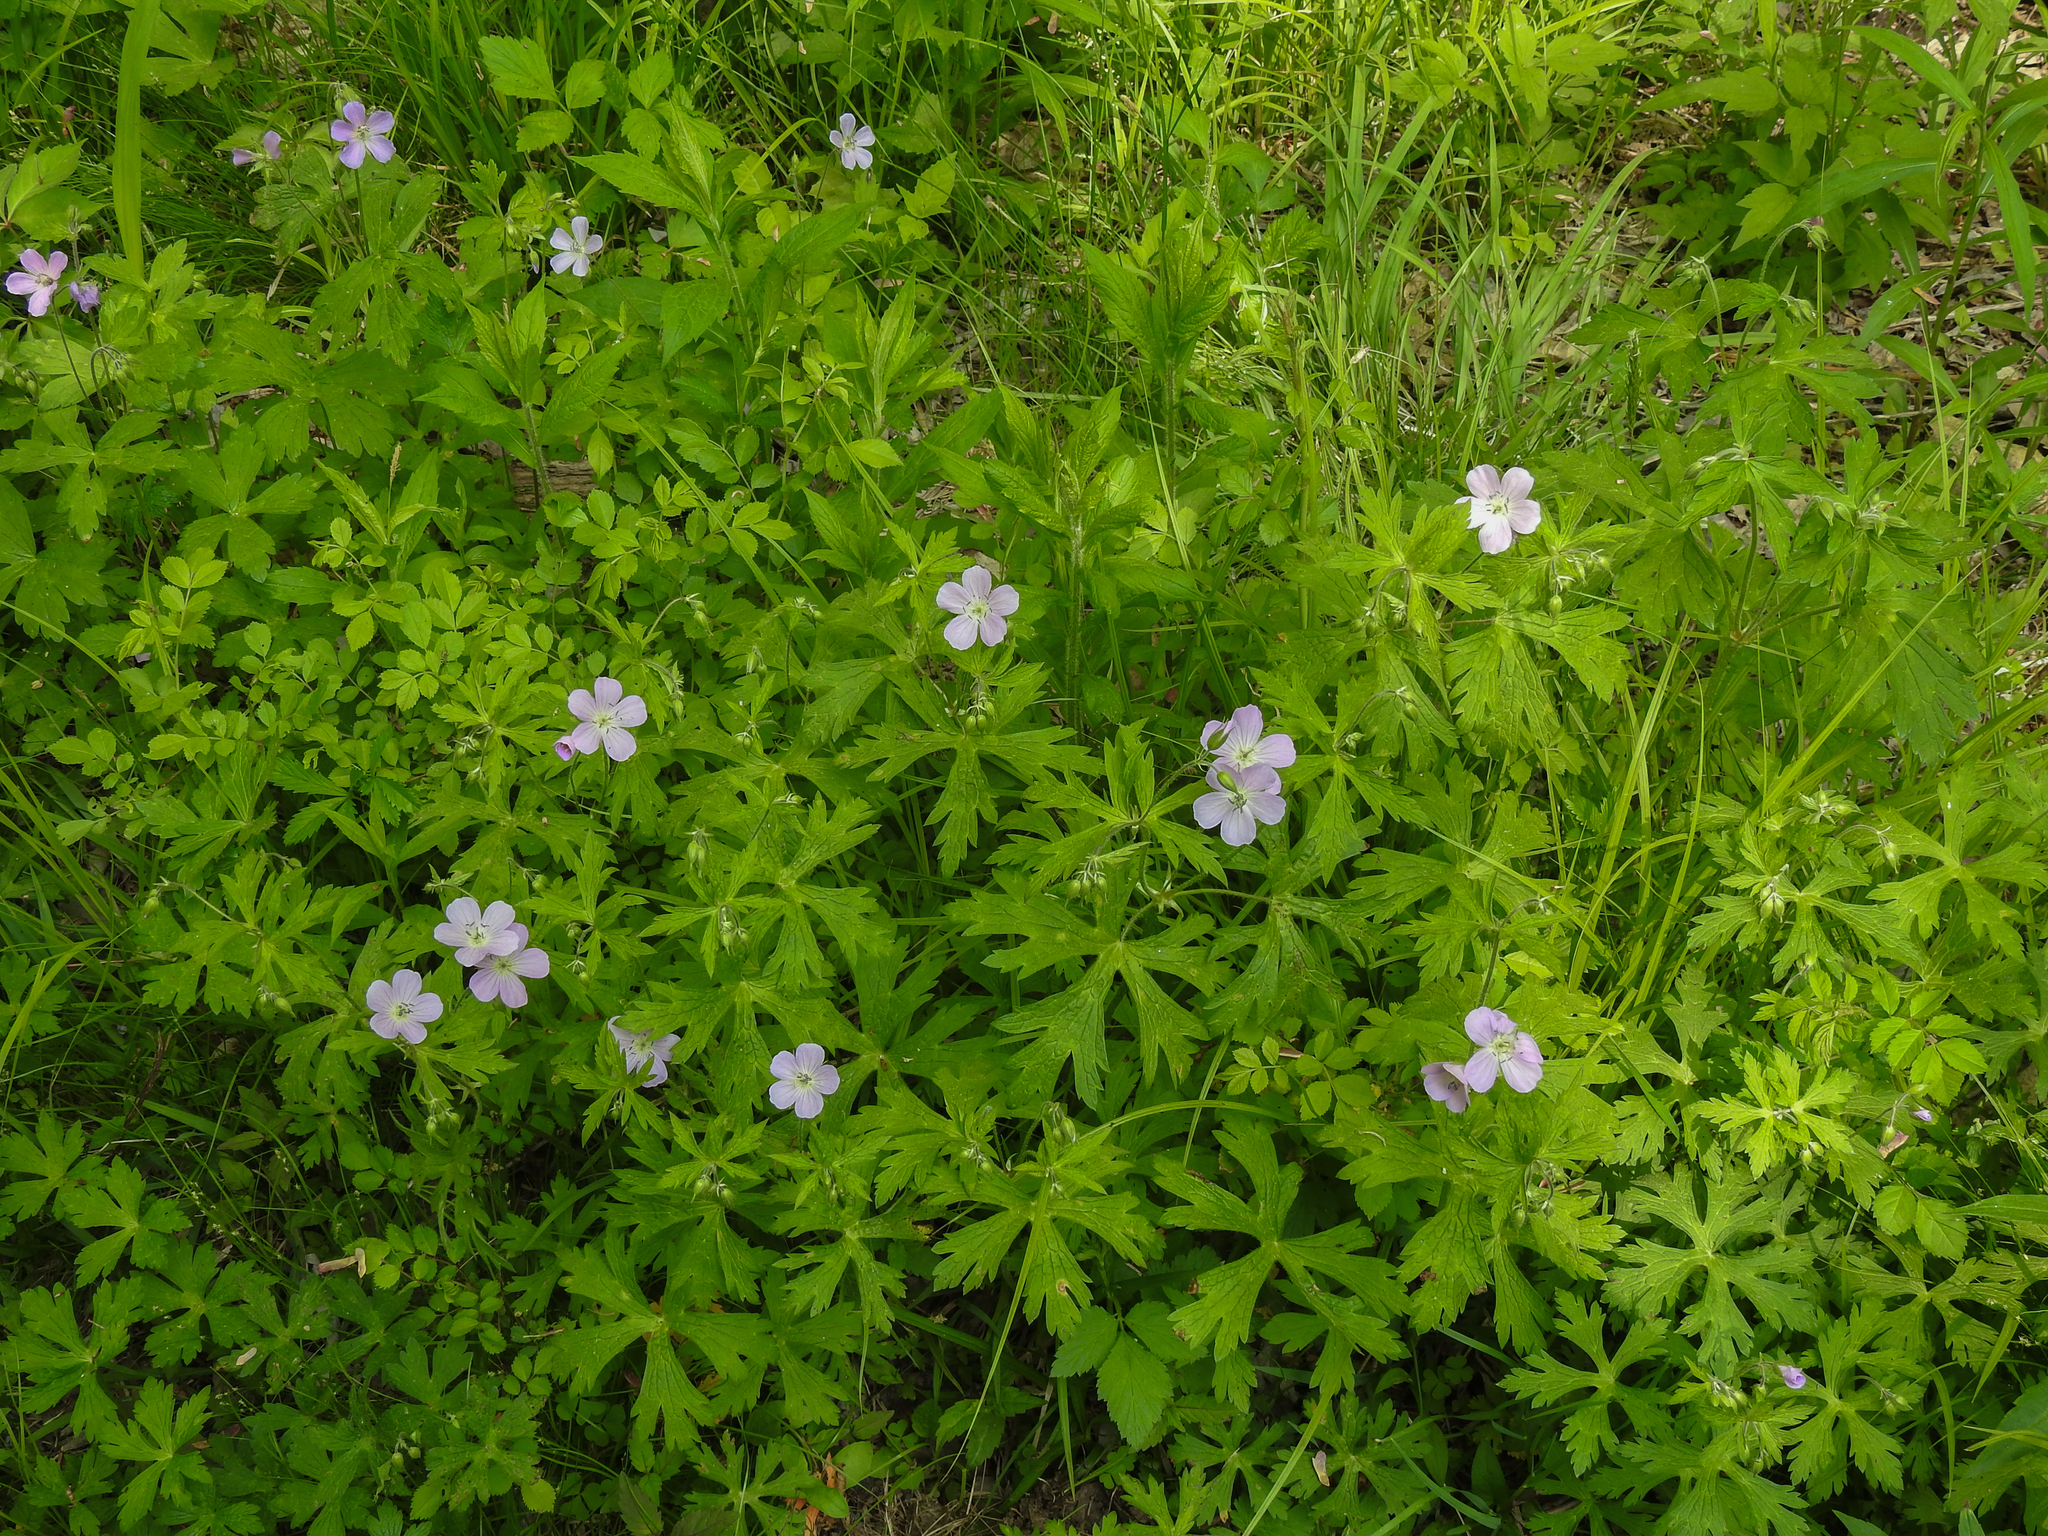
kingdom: Plantae
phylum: Tracheophyta
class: Magnoliopsida
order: Geraniales
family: Geraniaceae
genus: Geranium
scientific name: Geranium maculatum
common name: Spotted geranium
